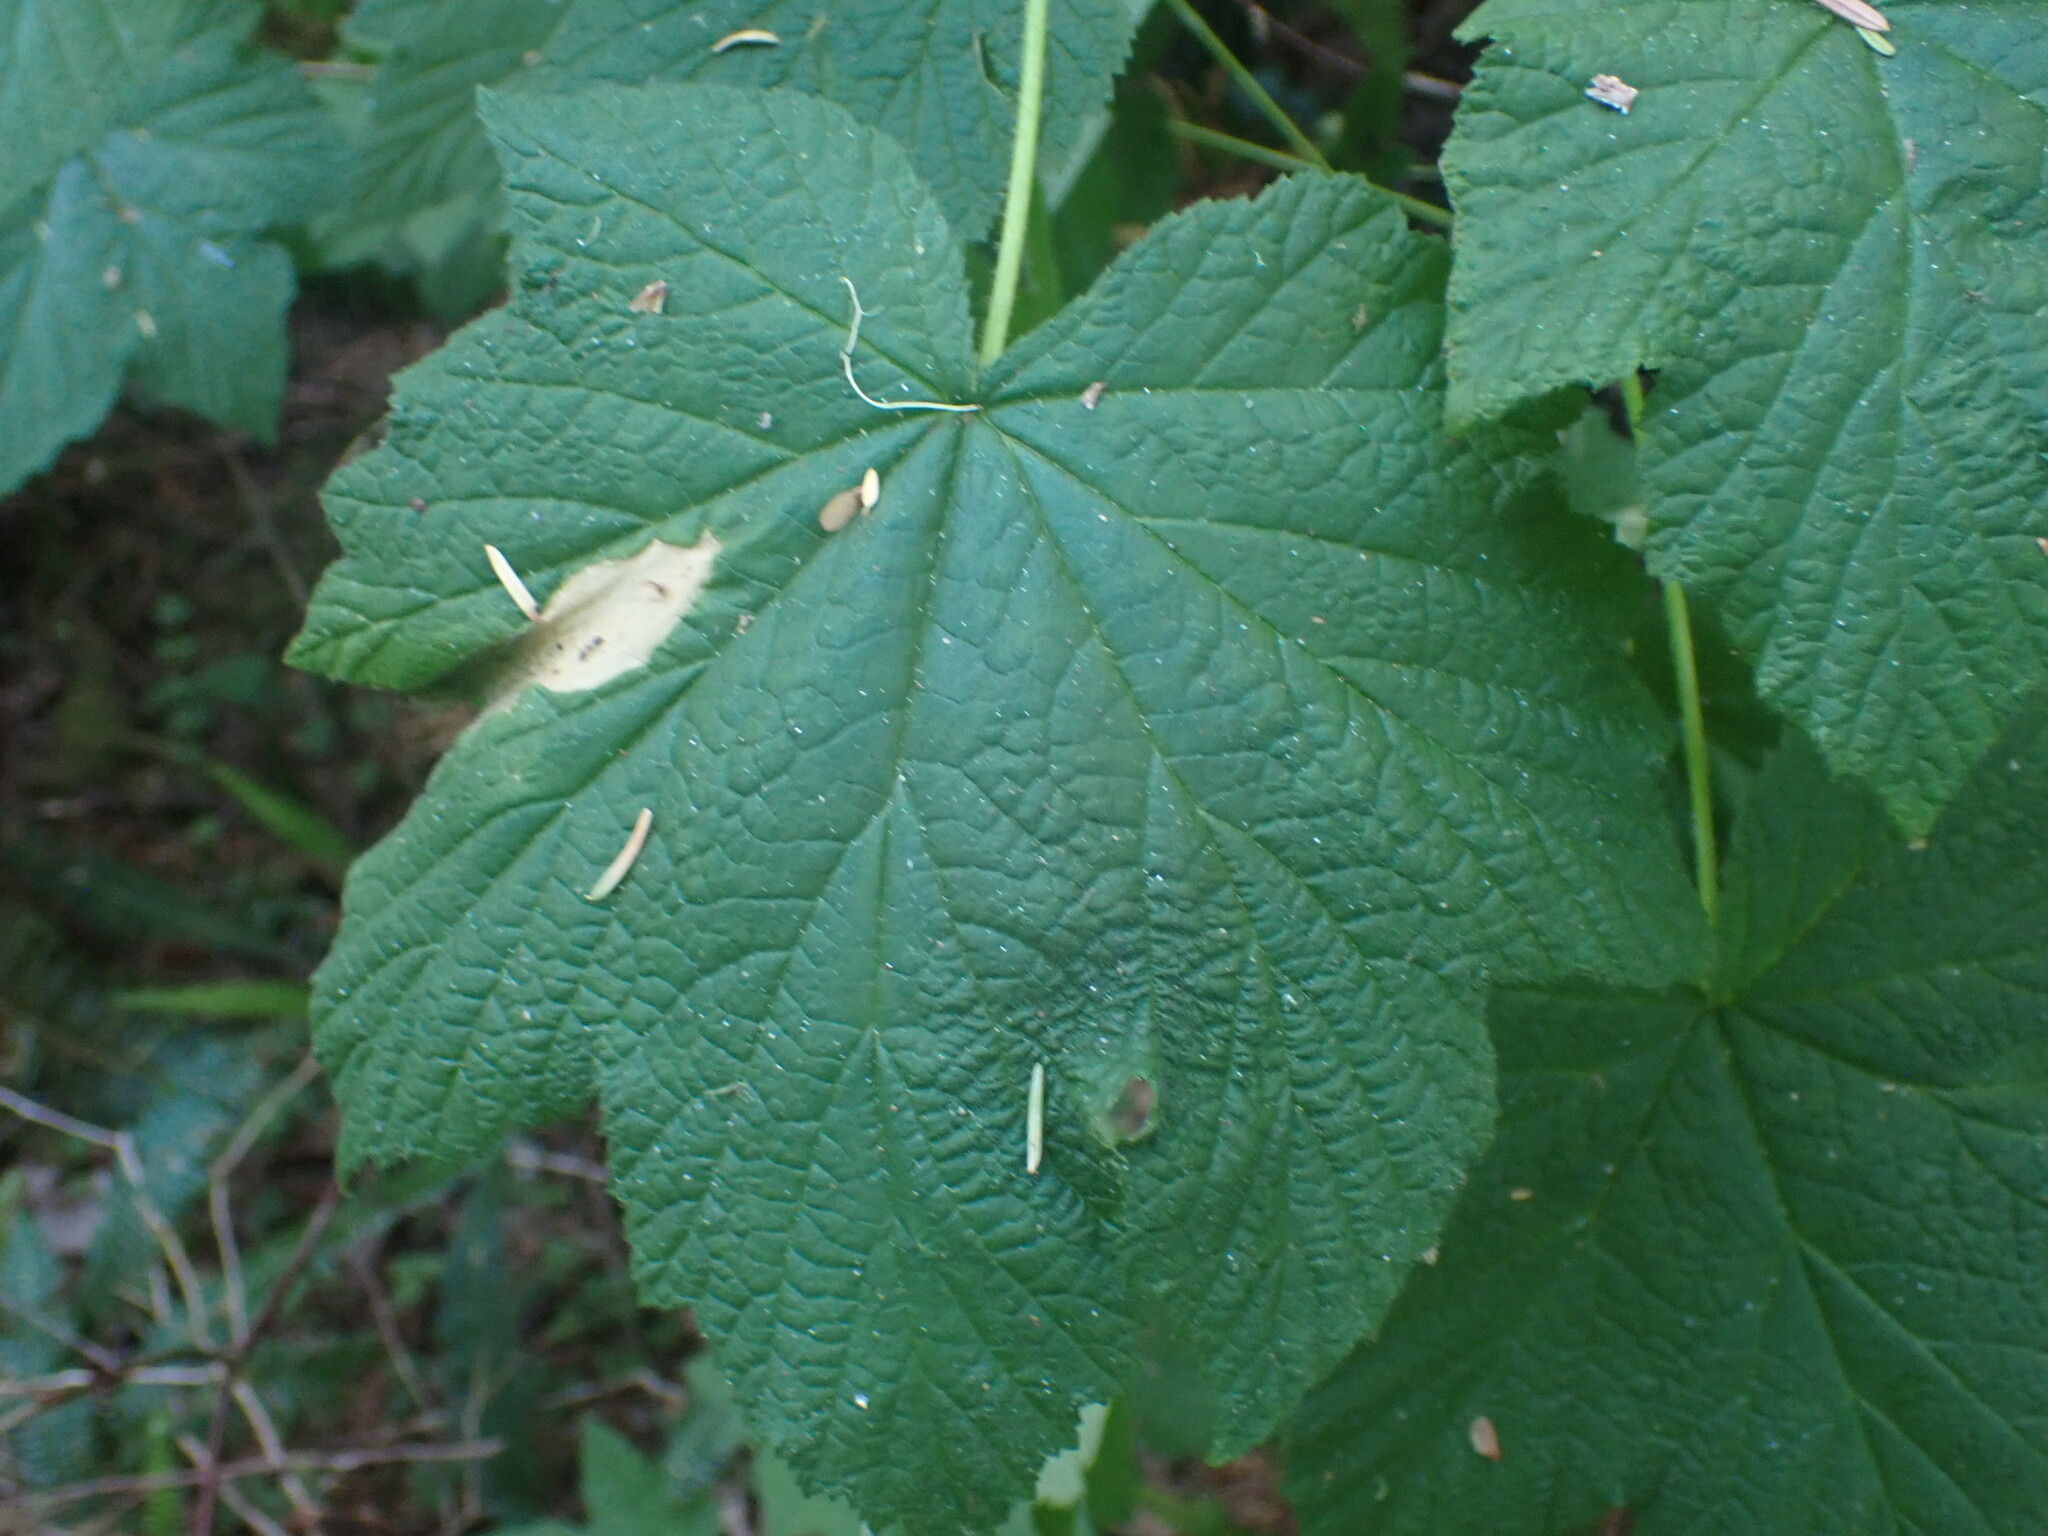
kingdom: Plantae
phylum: Tracheophyta
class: Magnoliopsida
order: Rosales
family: Rosaceae
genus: Rubus
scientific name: Rubus parviflorus
